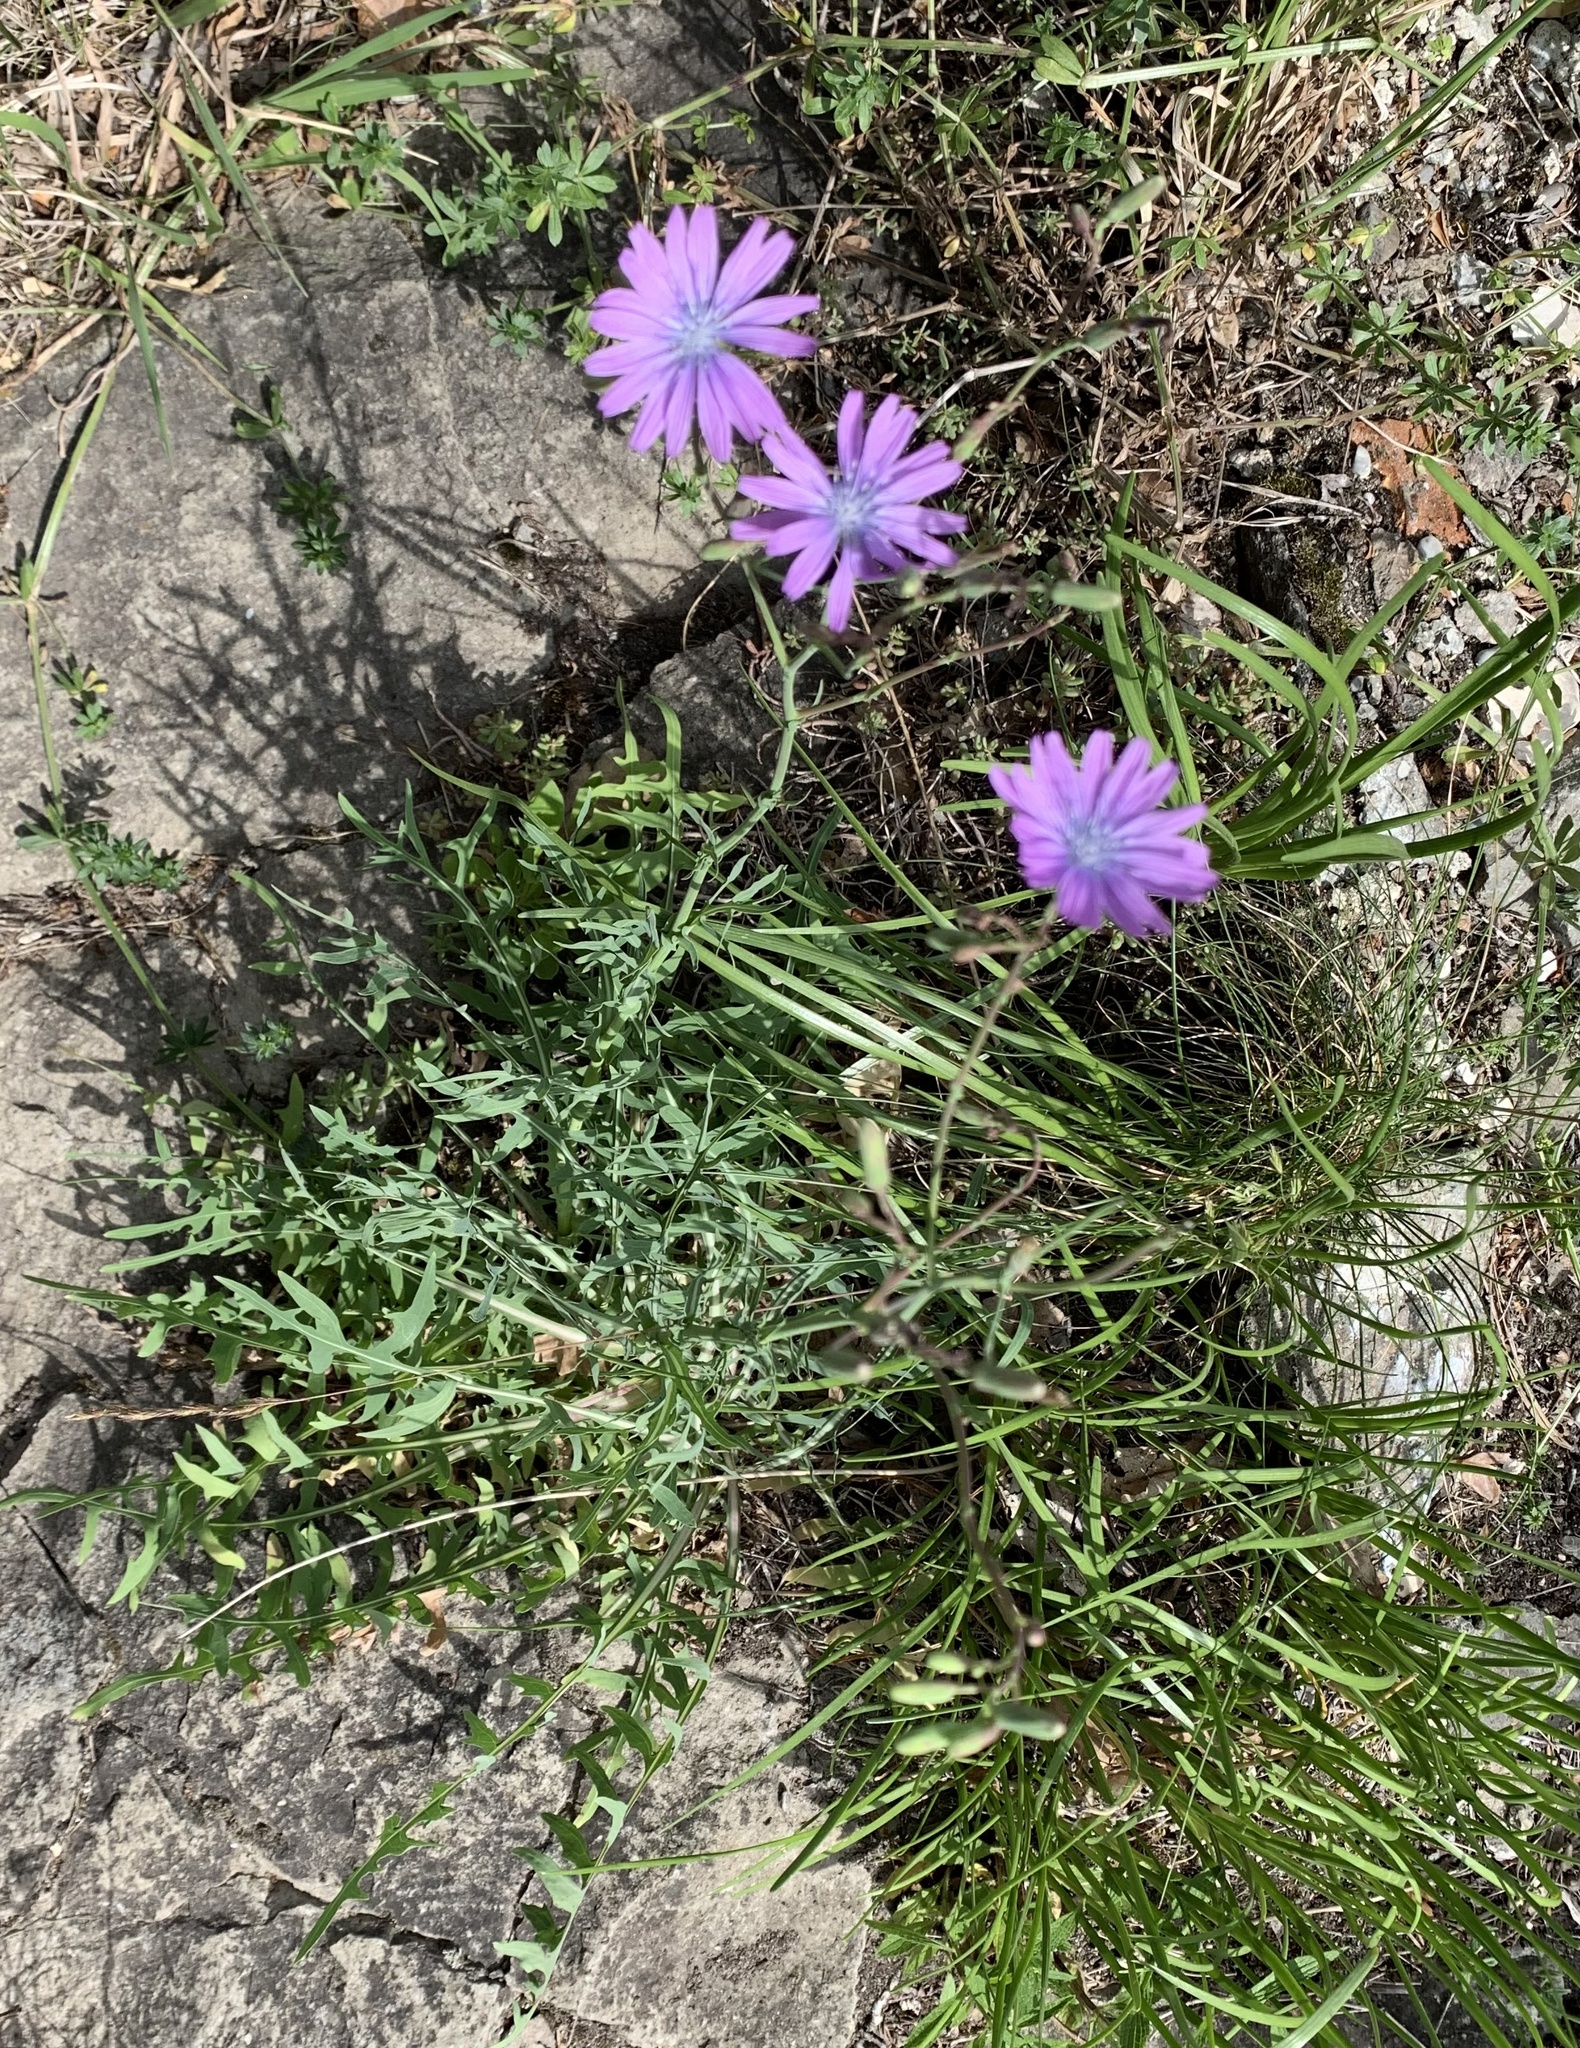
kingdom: Plantae
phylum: Tracheophyta
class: Magnoliopsida
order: Asterales
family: Asteraceae
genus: Lactuca
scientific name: Lactuca perennis
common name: Mountain lettuce
